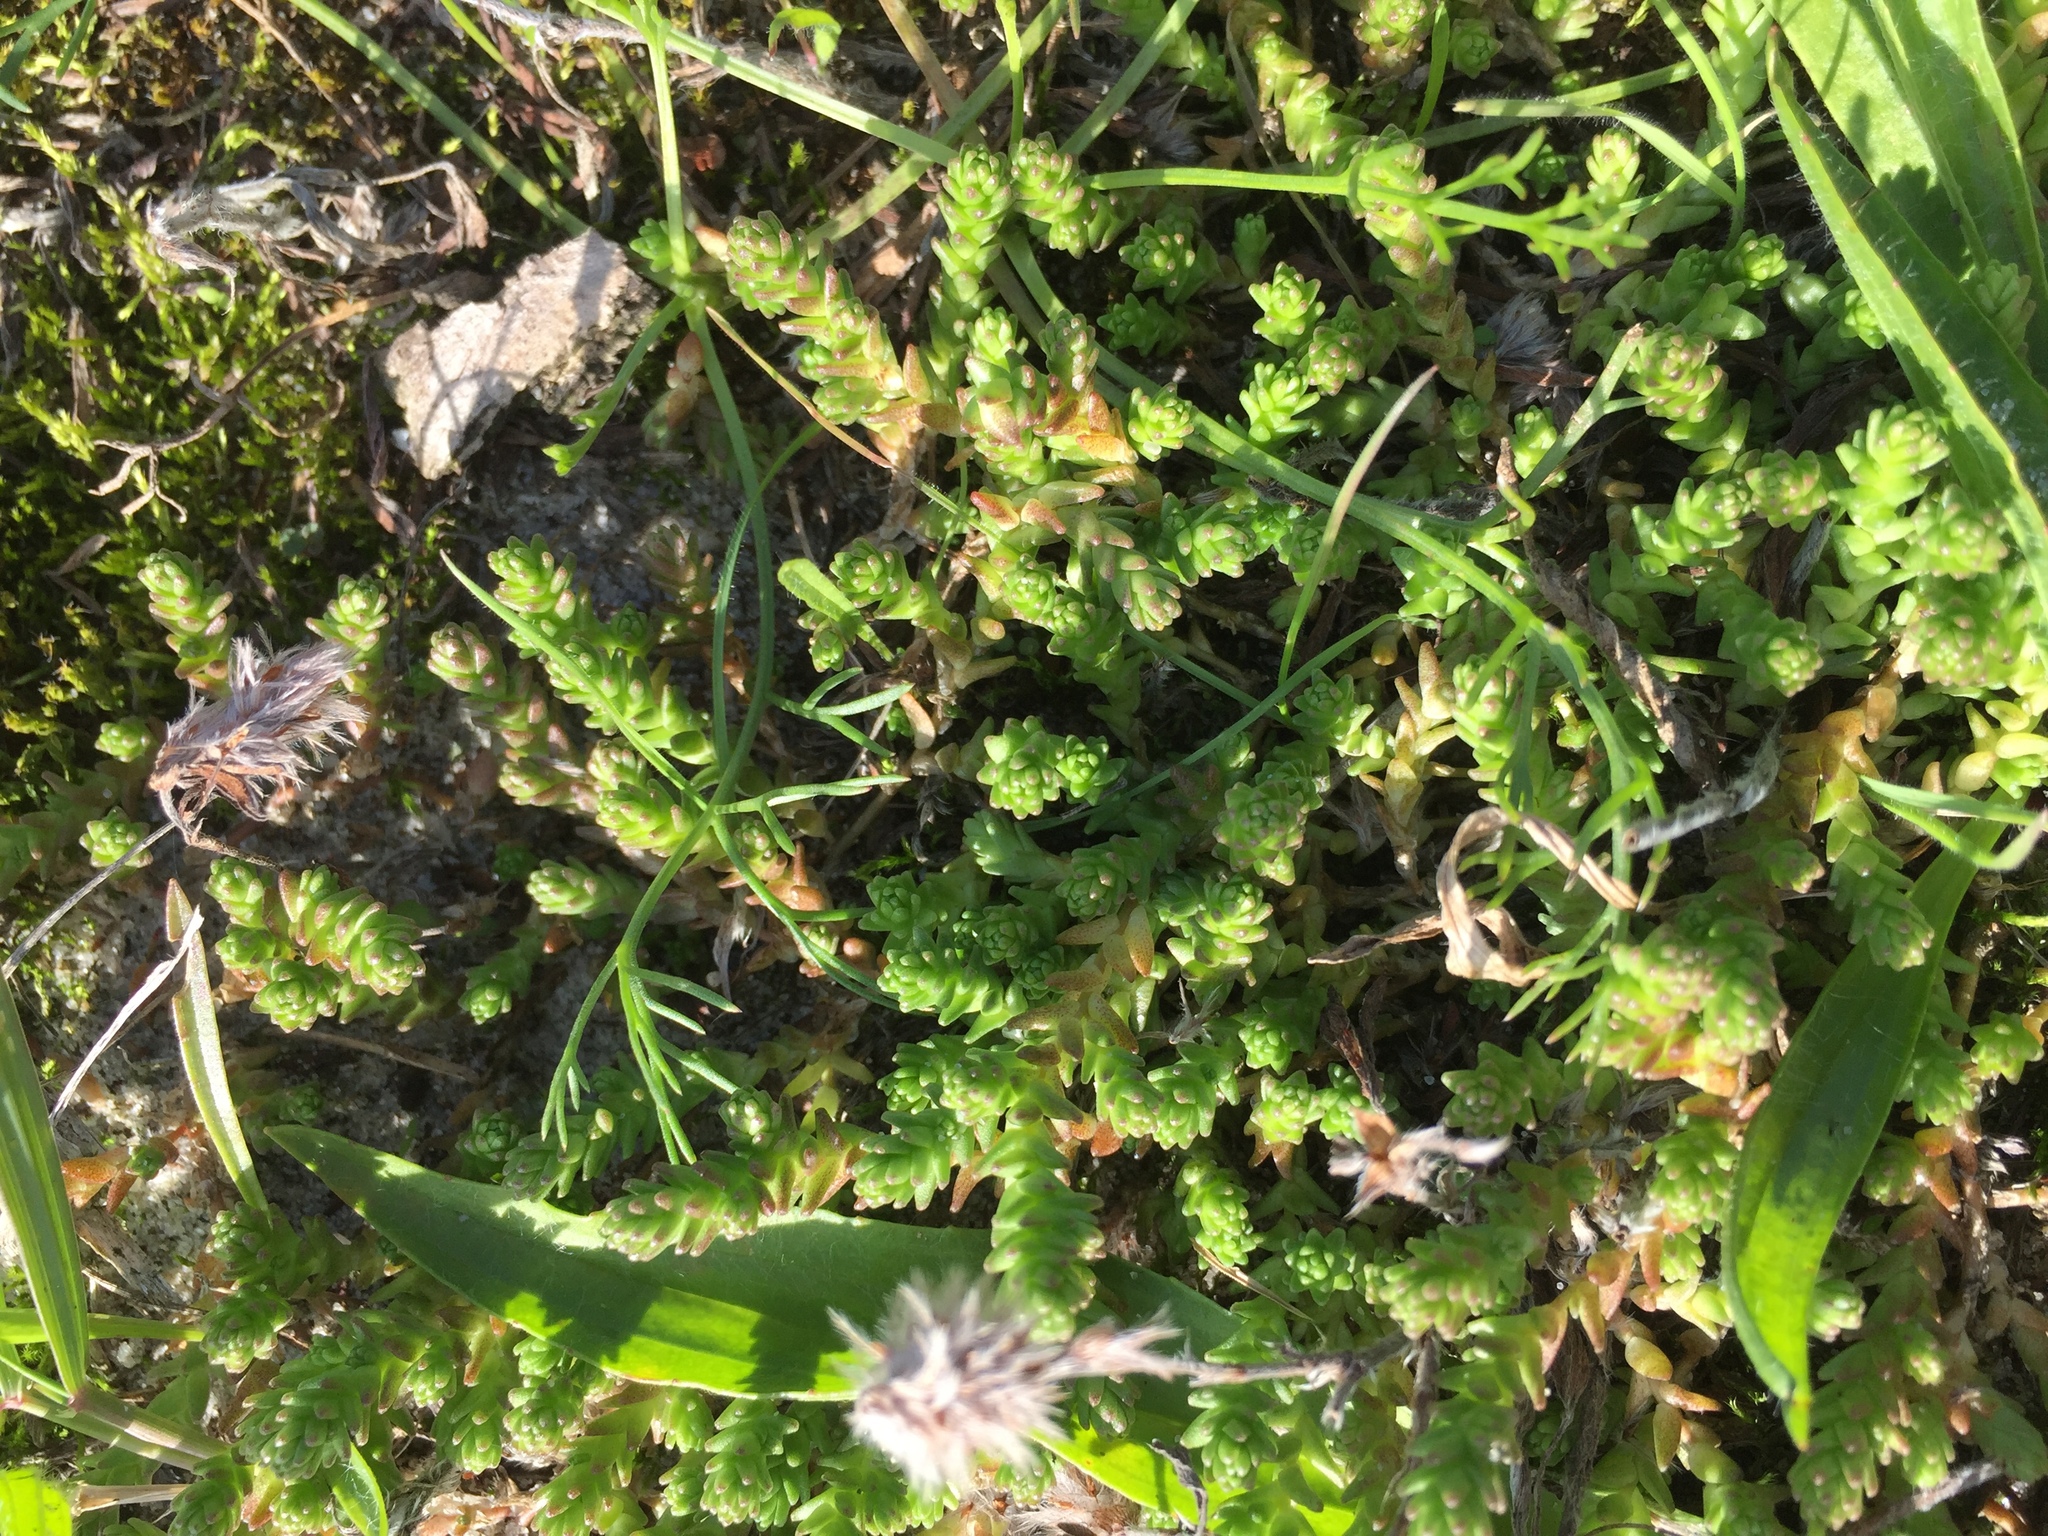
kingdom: Plantae
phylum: Tracheophyta
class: Magnoliopsida
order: Saxifragales
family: Crassulaceae
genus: Sedum
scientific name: Sedum acre
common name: Biting stonecrop
